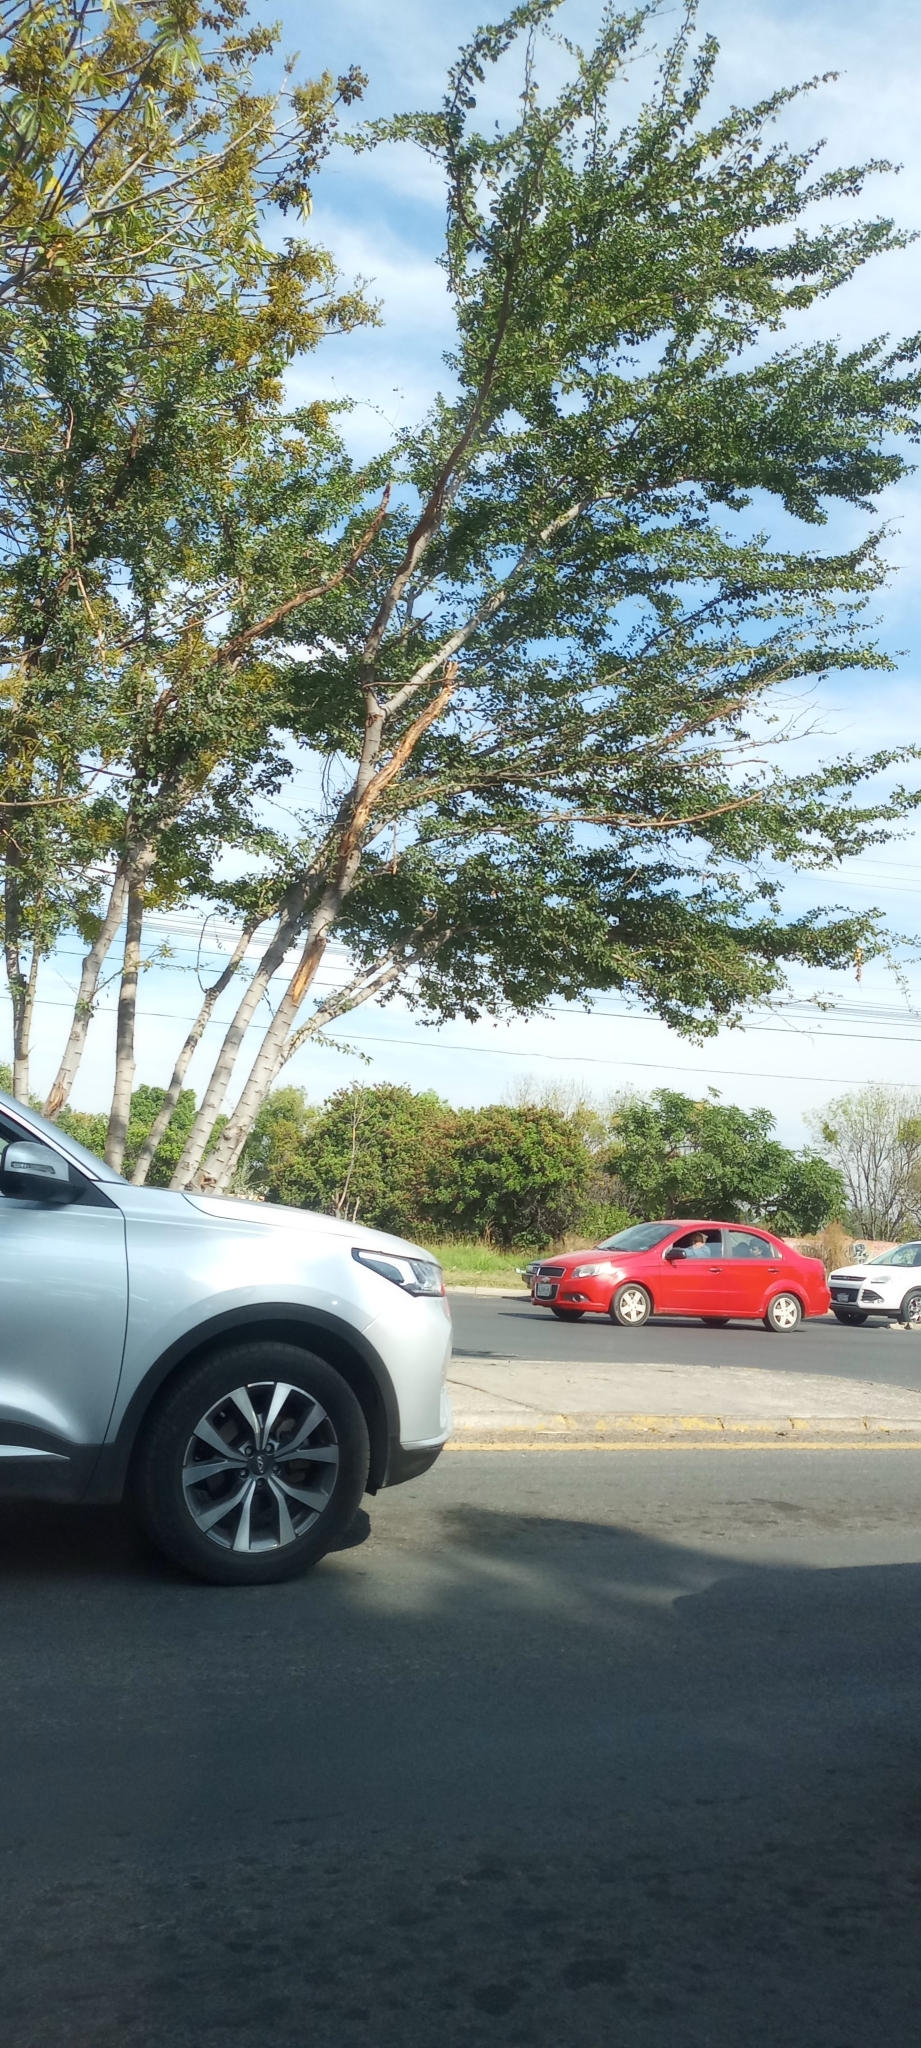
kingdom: Plantae
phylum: Tracheophyta
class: Magnoliopsida
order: Fabales
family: Fabaceae
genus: Pithecellobium
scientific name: Pithecellobium dulce
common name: Monkeypod
